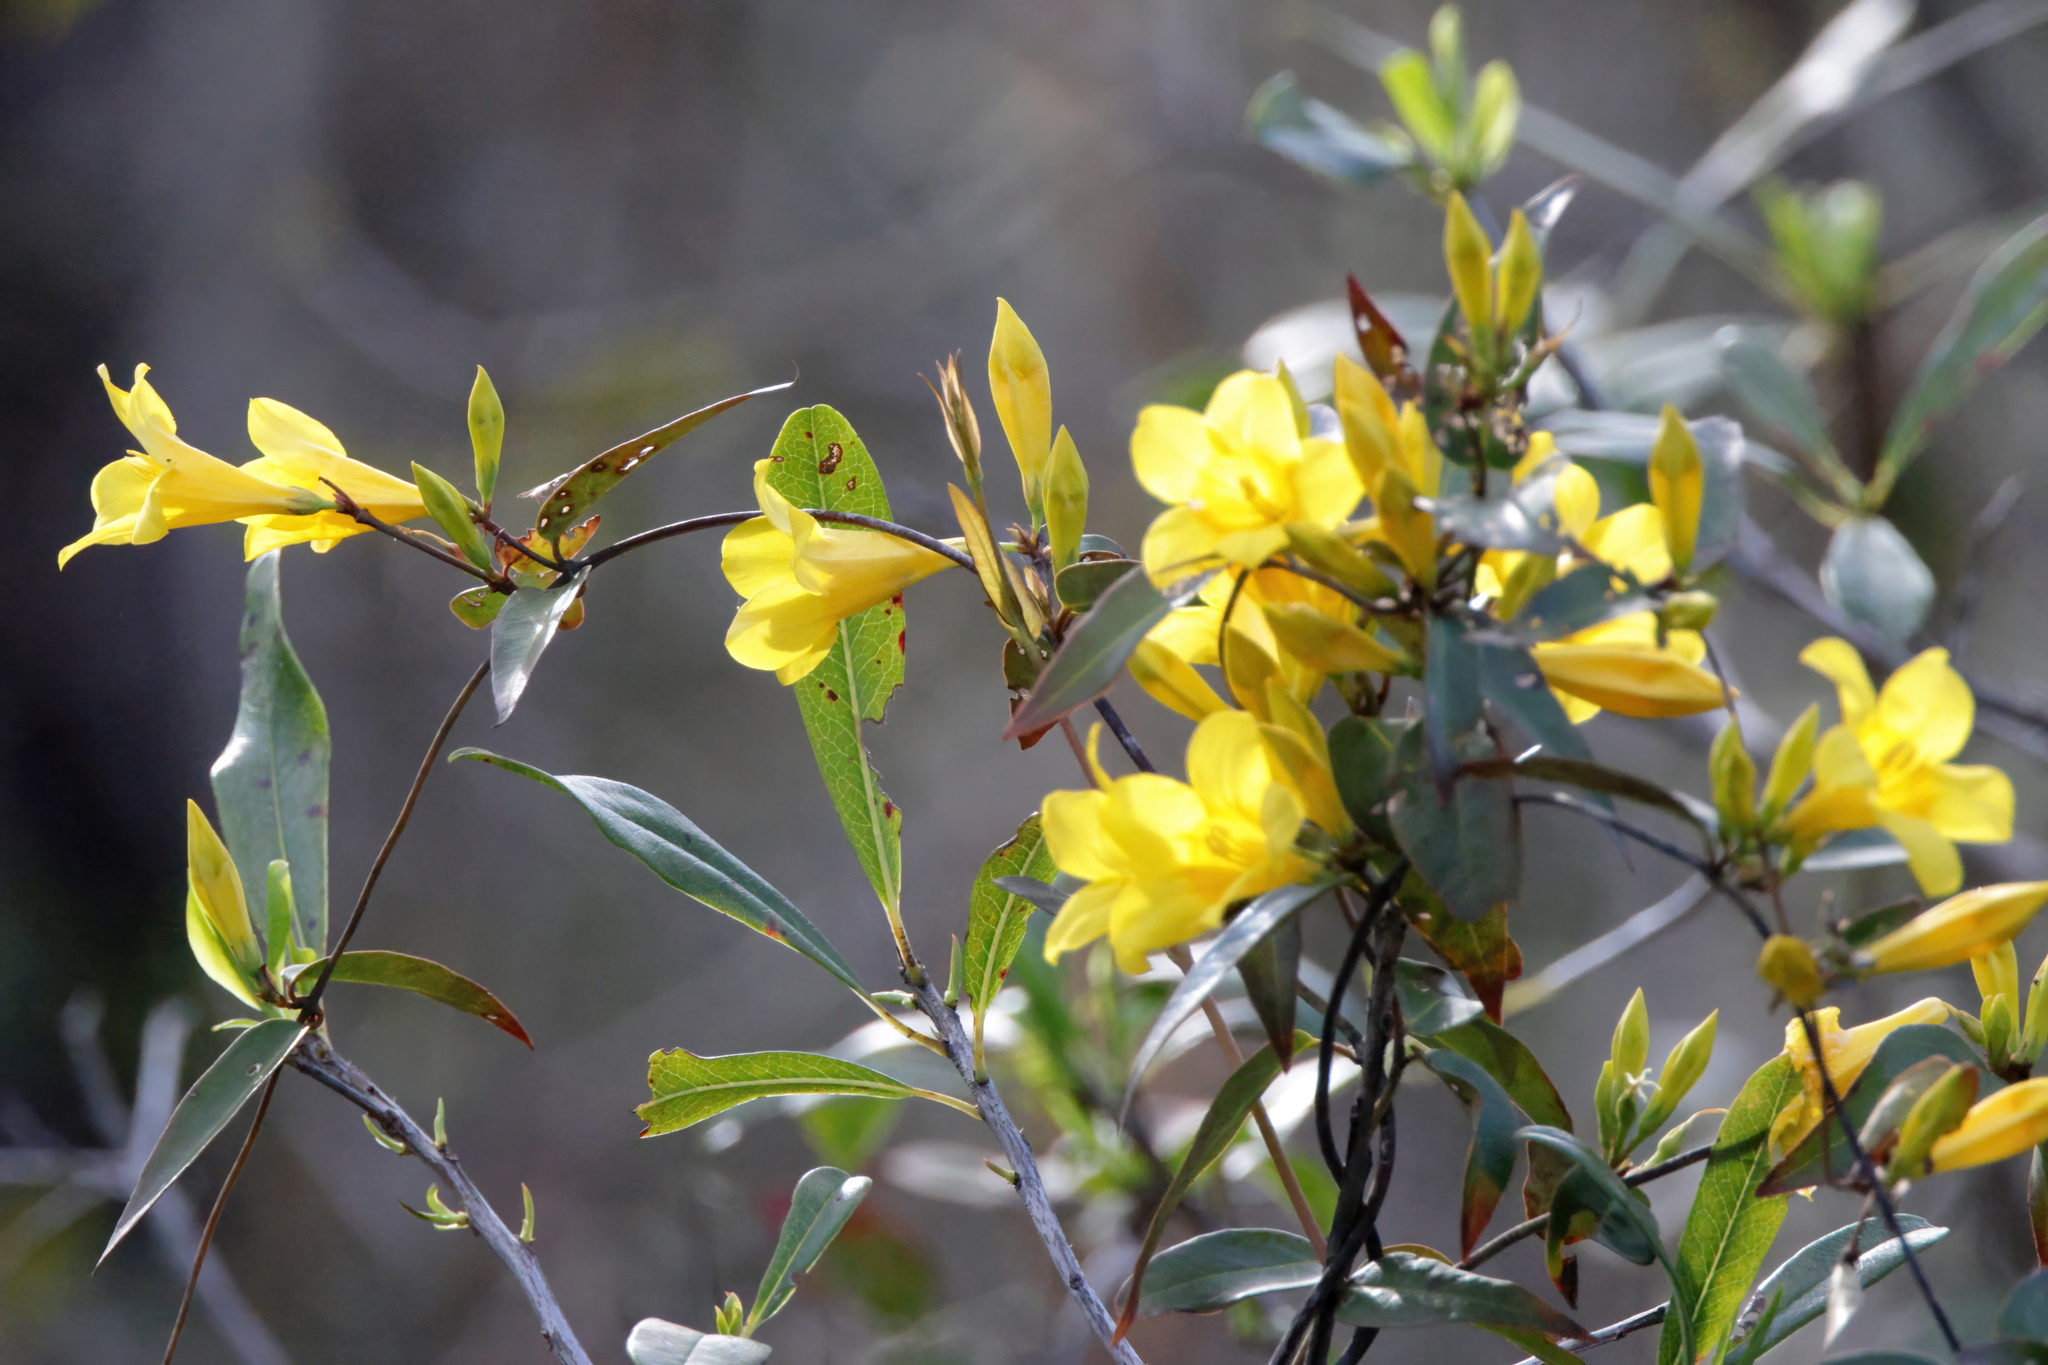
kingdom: Plantae
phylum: Tracheophyta
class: Magnoliopsida
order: Gentianales
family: Gelsemiaceae
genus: Gelsemium
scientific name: Gelsemium rankinii
